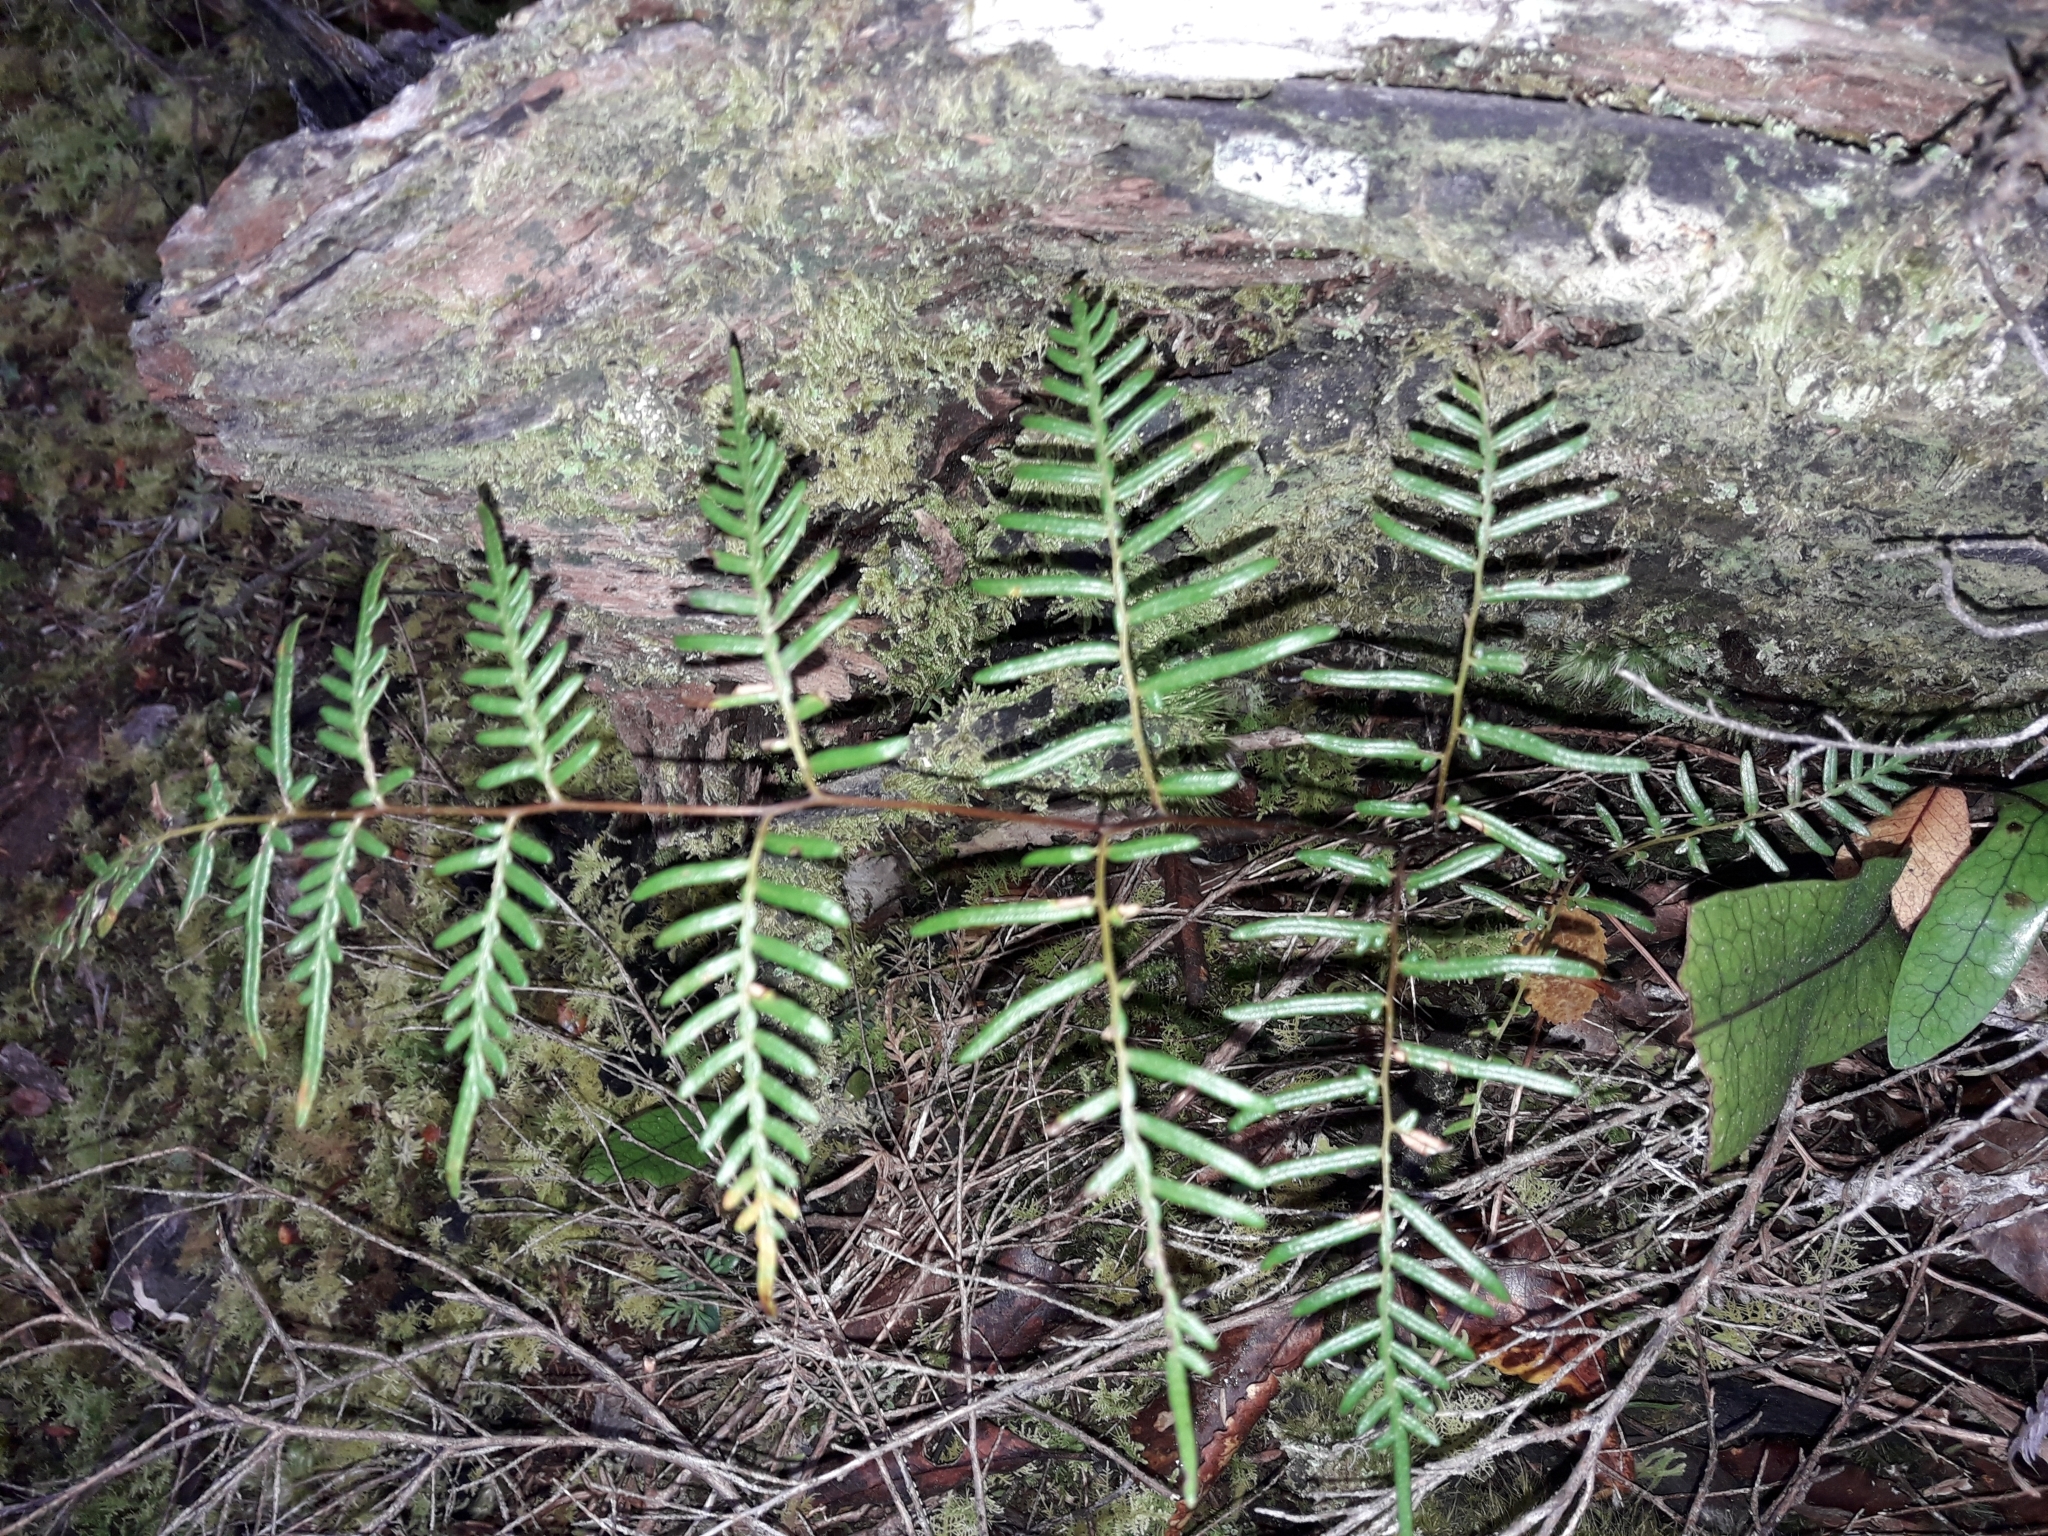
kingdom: Plantae
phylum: Tracheophyta
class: Polypodiopsida
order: Polypodiales
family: Dennstaedtiaceae
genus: Pteridium
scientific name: Pteridium esculentum
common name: Bracken fern
